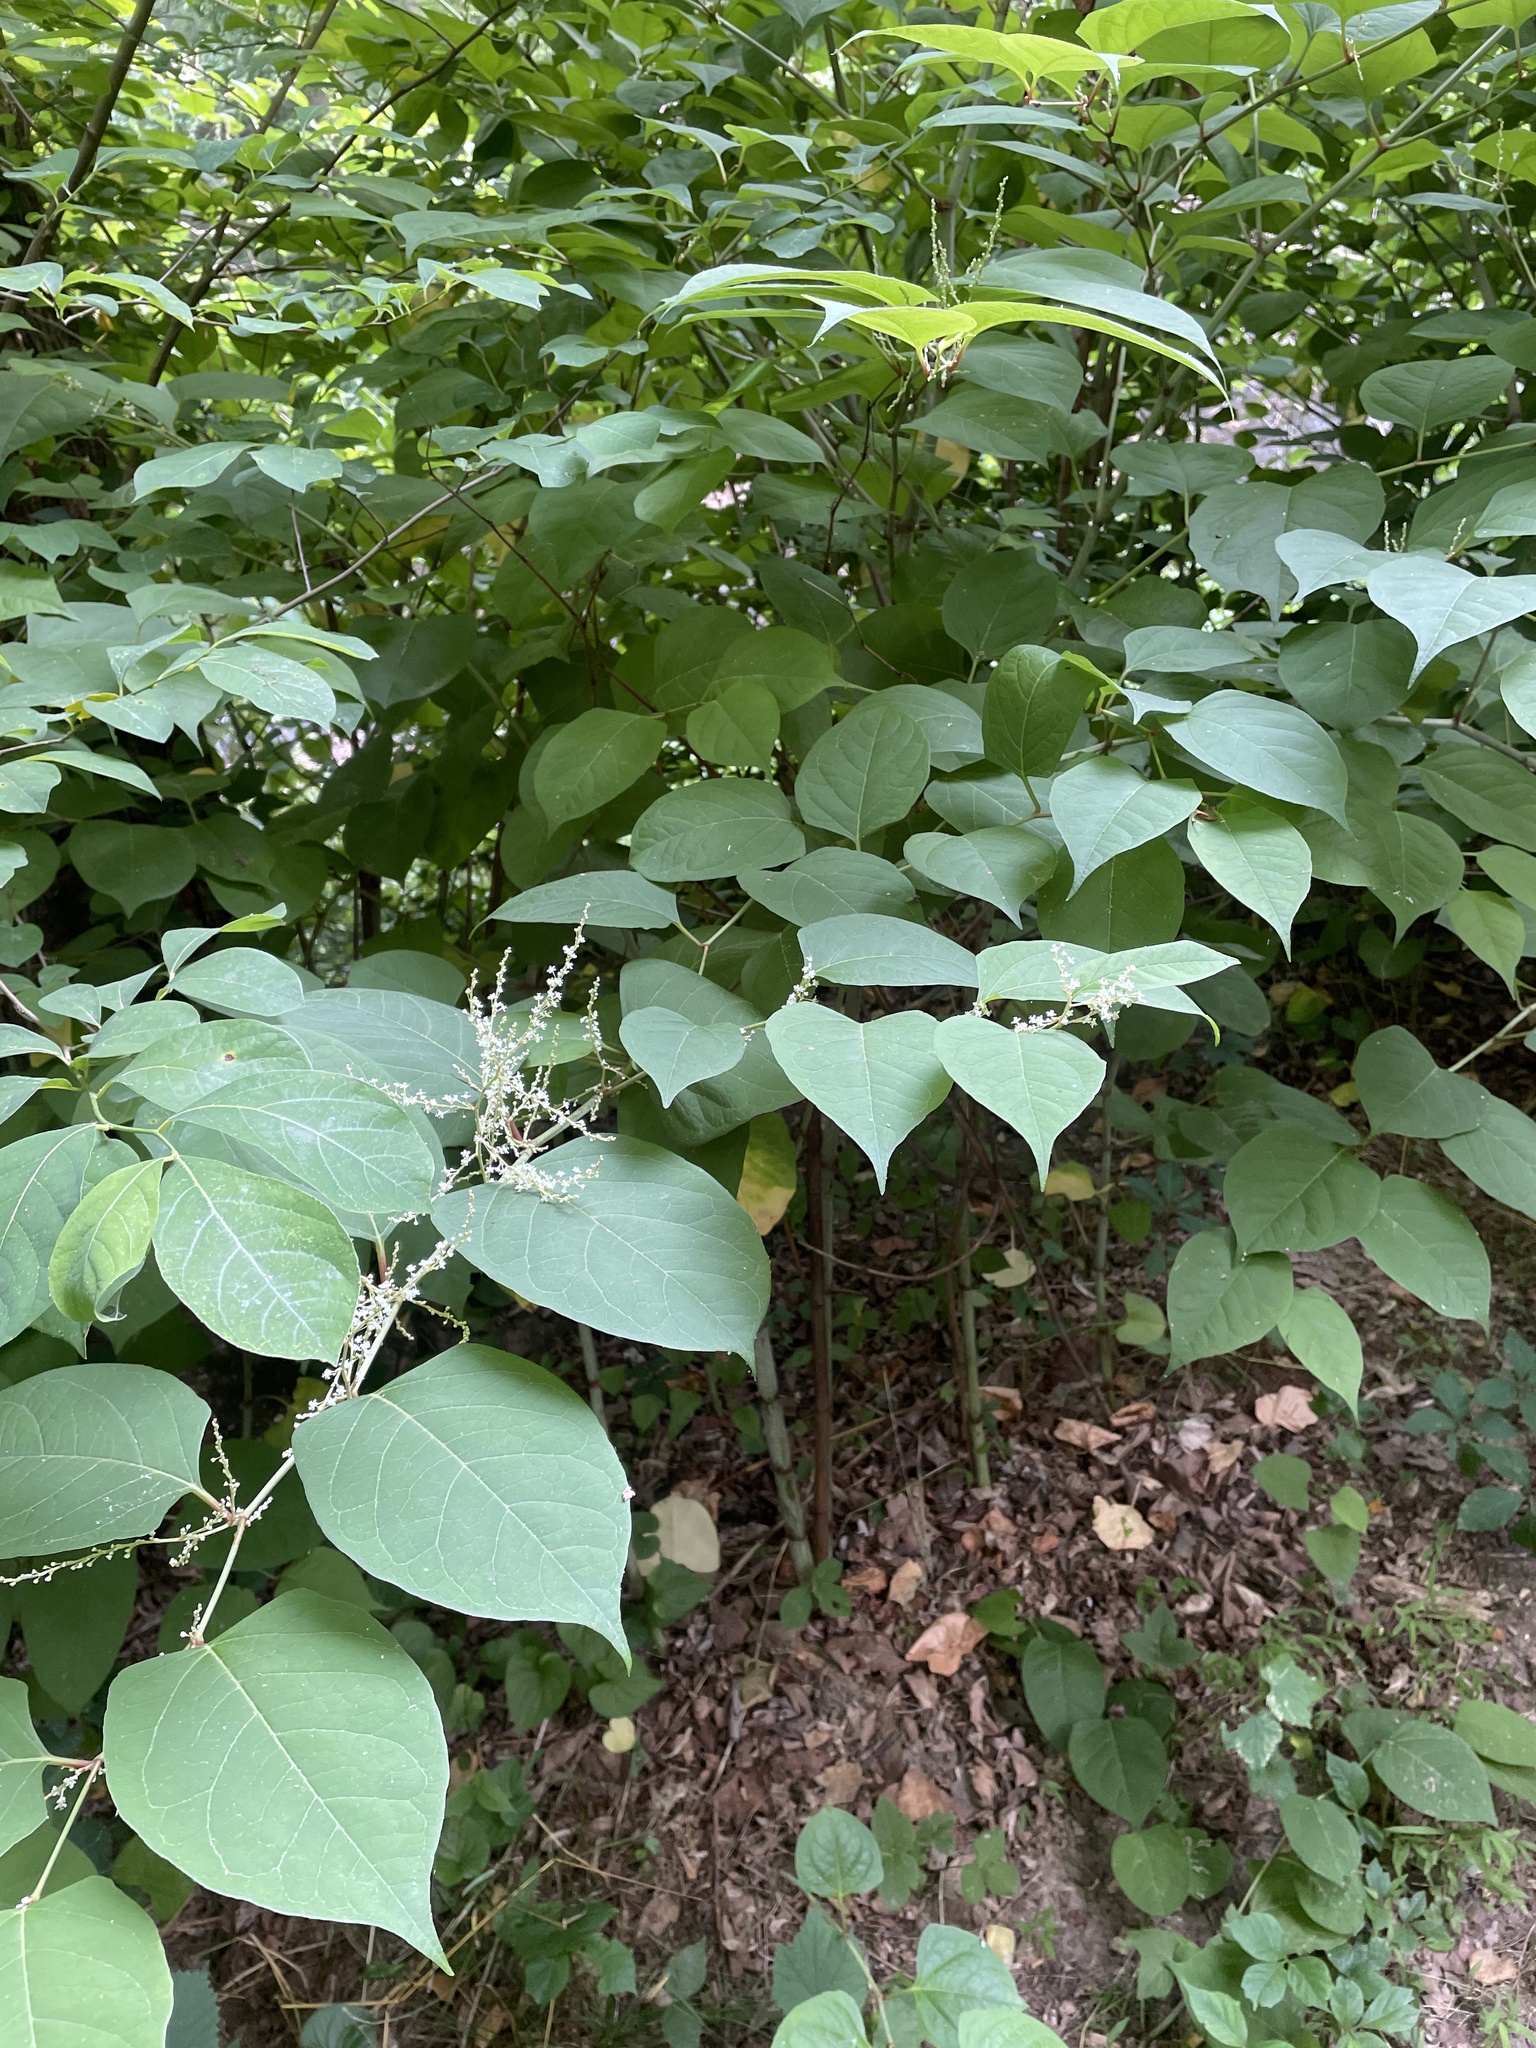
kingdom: Plantae
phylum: Tracheophyta
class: Magnoliopsida
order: Caryophyllales
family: Polygonaceae
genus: Reynoutria
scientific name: Reynoutria japonica
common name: Japanese knotweed
